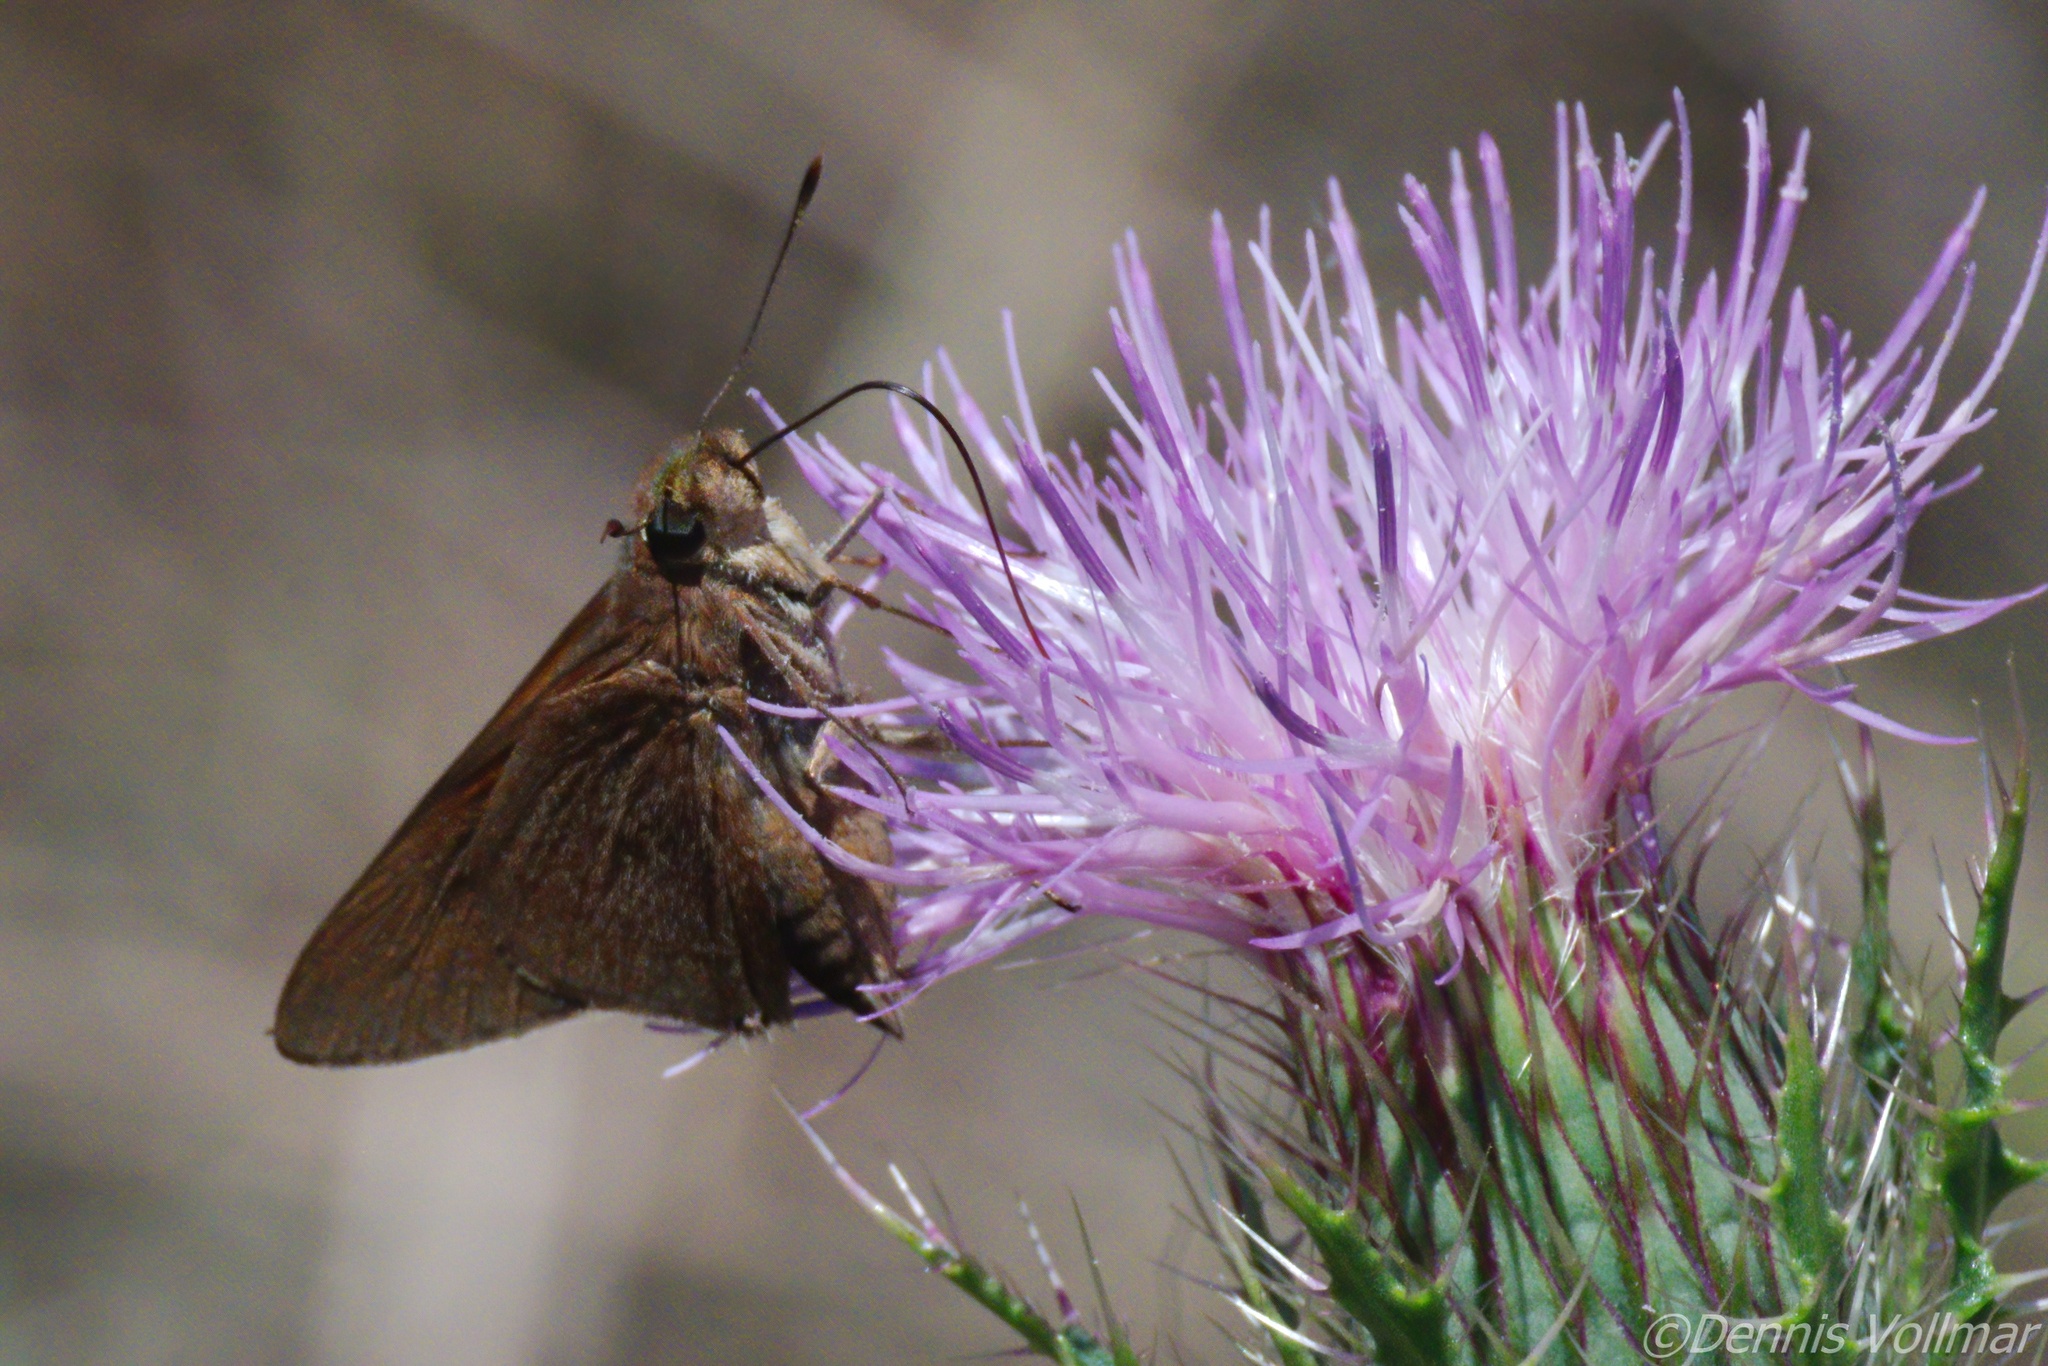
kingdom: Animalia
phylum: Arthropoda
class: Insecta
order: Lepidoptera
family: Hesperiidae
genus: Asbolis
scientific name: Asbolis capucinus
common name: Monk skipper
